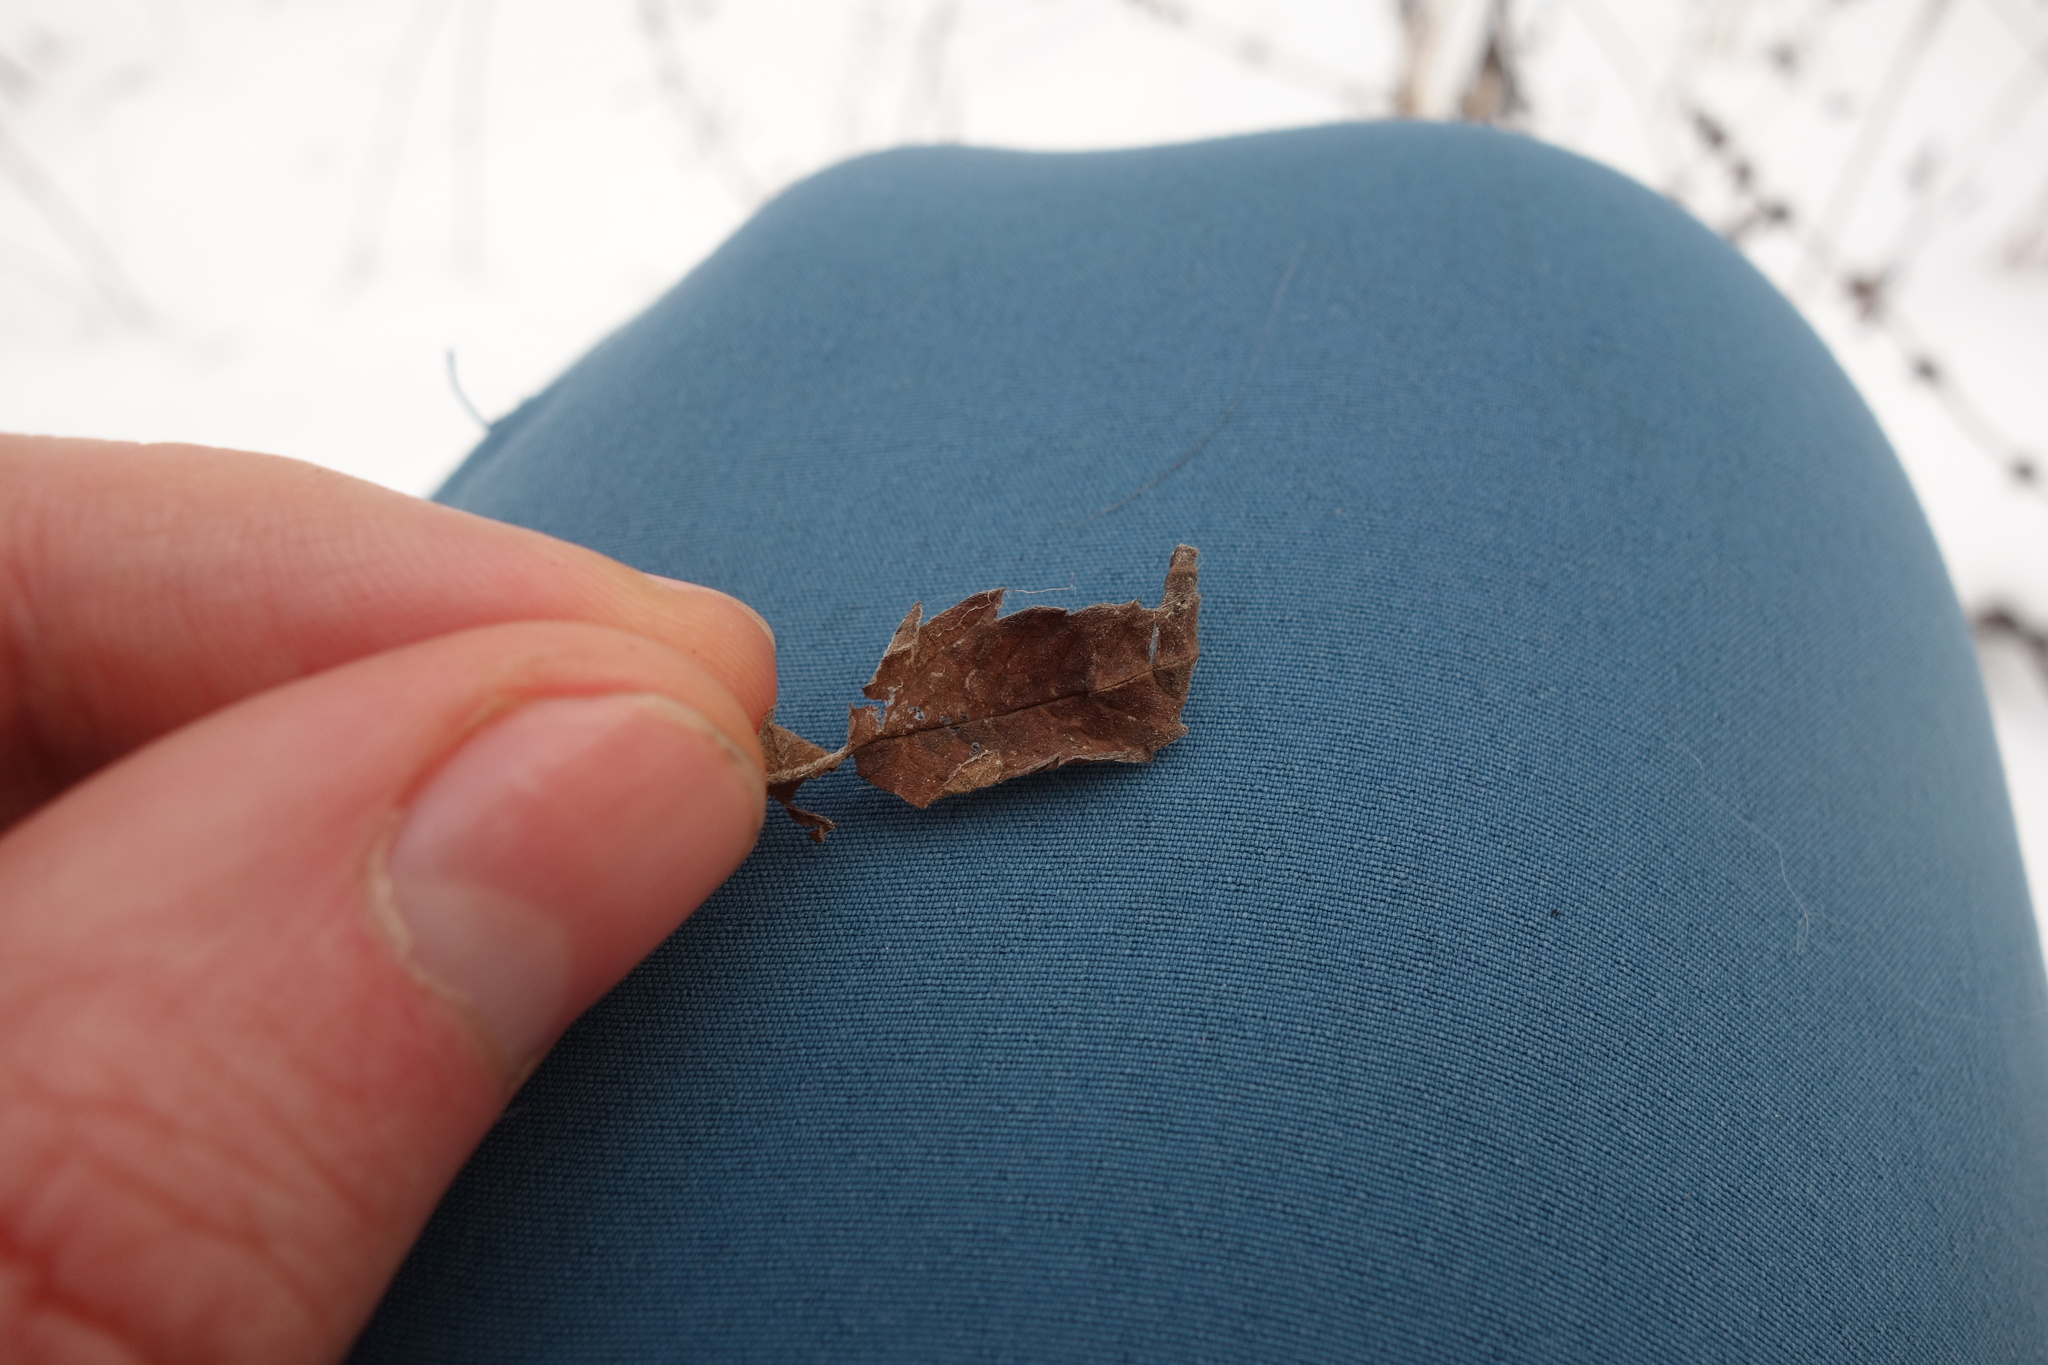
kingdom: Plantae
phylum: Tracheophyta
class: Magnoliopsida
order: Lamiales
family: Lamiaceae
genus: Lycopus
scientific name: Lycopus europaeus
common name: European bugleweed
